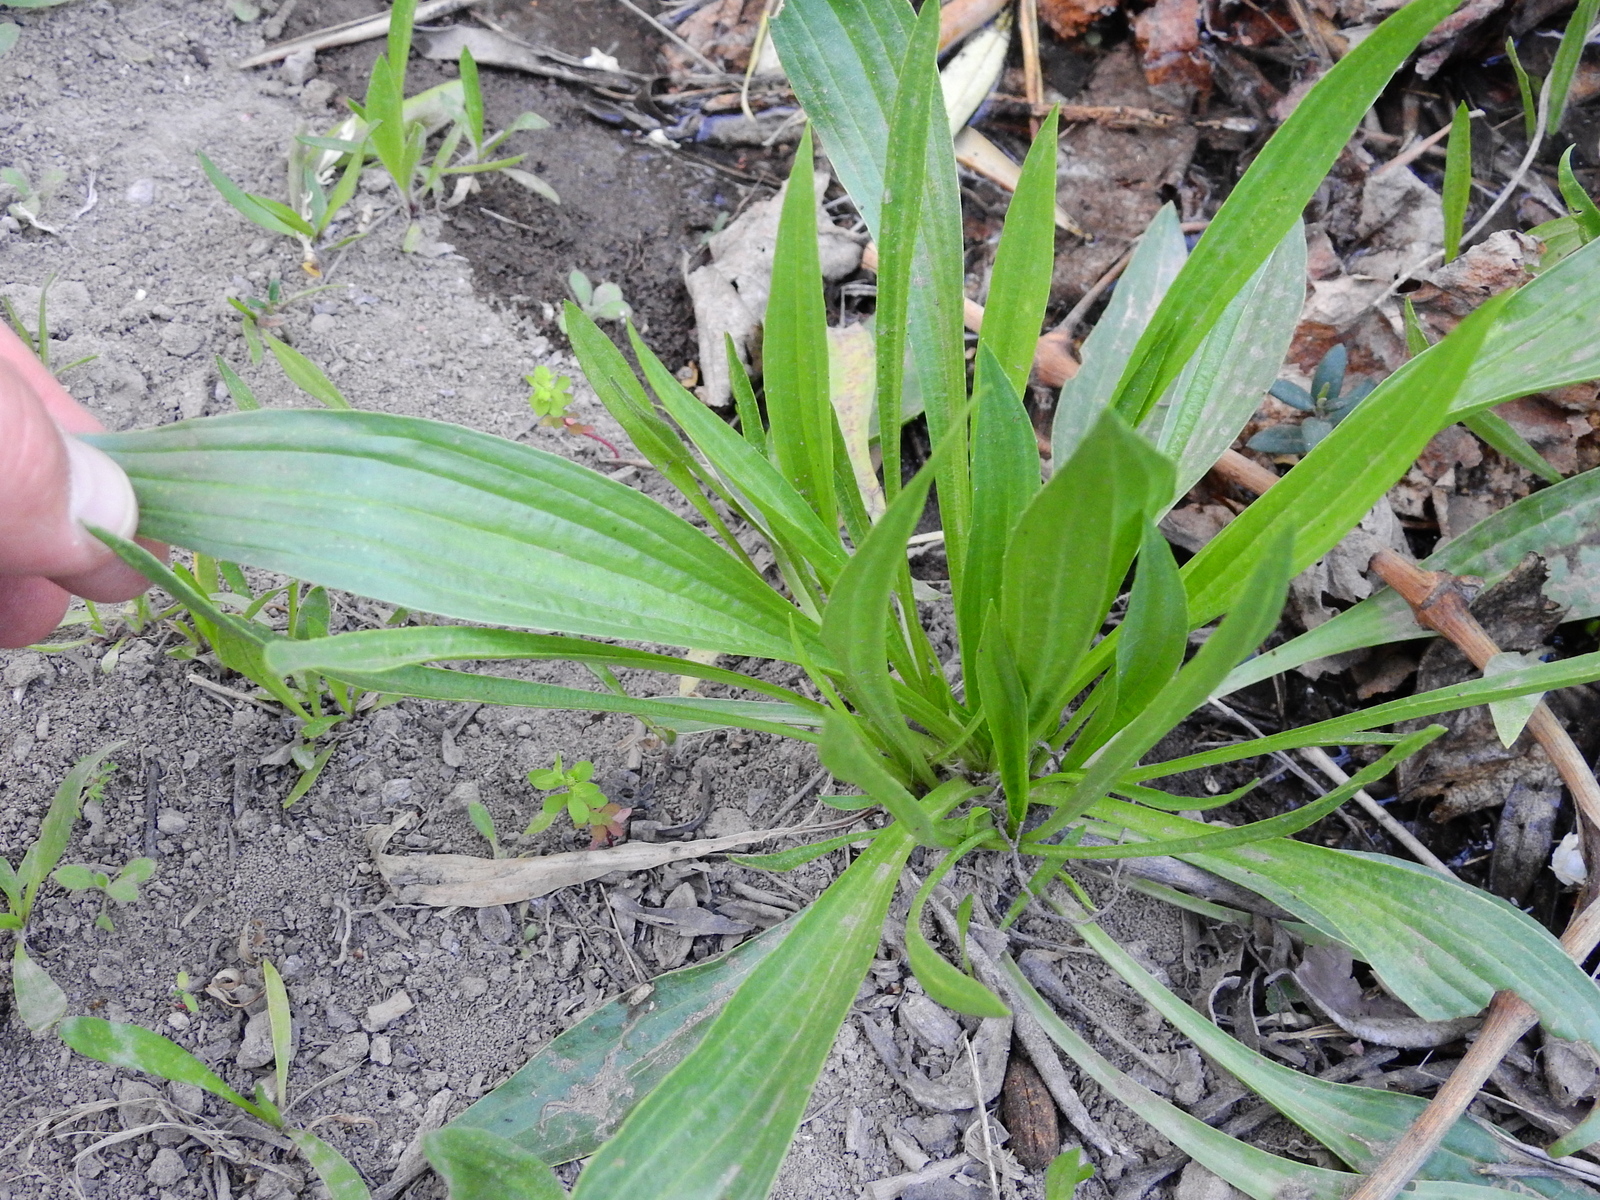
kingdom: Plantae
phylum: Tracheophyta
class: Magnoliopsida
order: Lamiales
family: Plantaginaceae
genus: Plantago
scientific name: Plantago lanceolata
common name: Ribwort plantain
